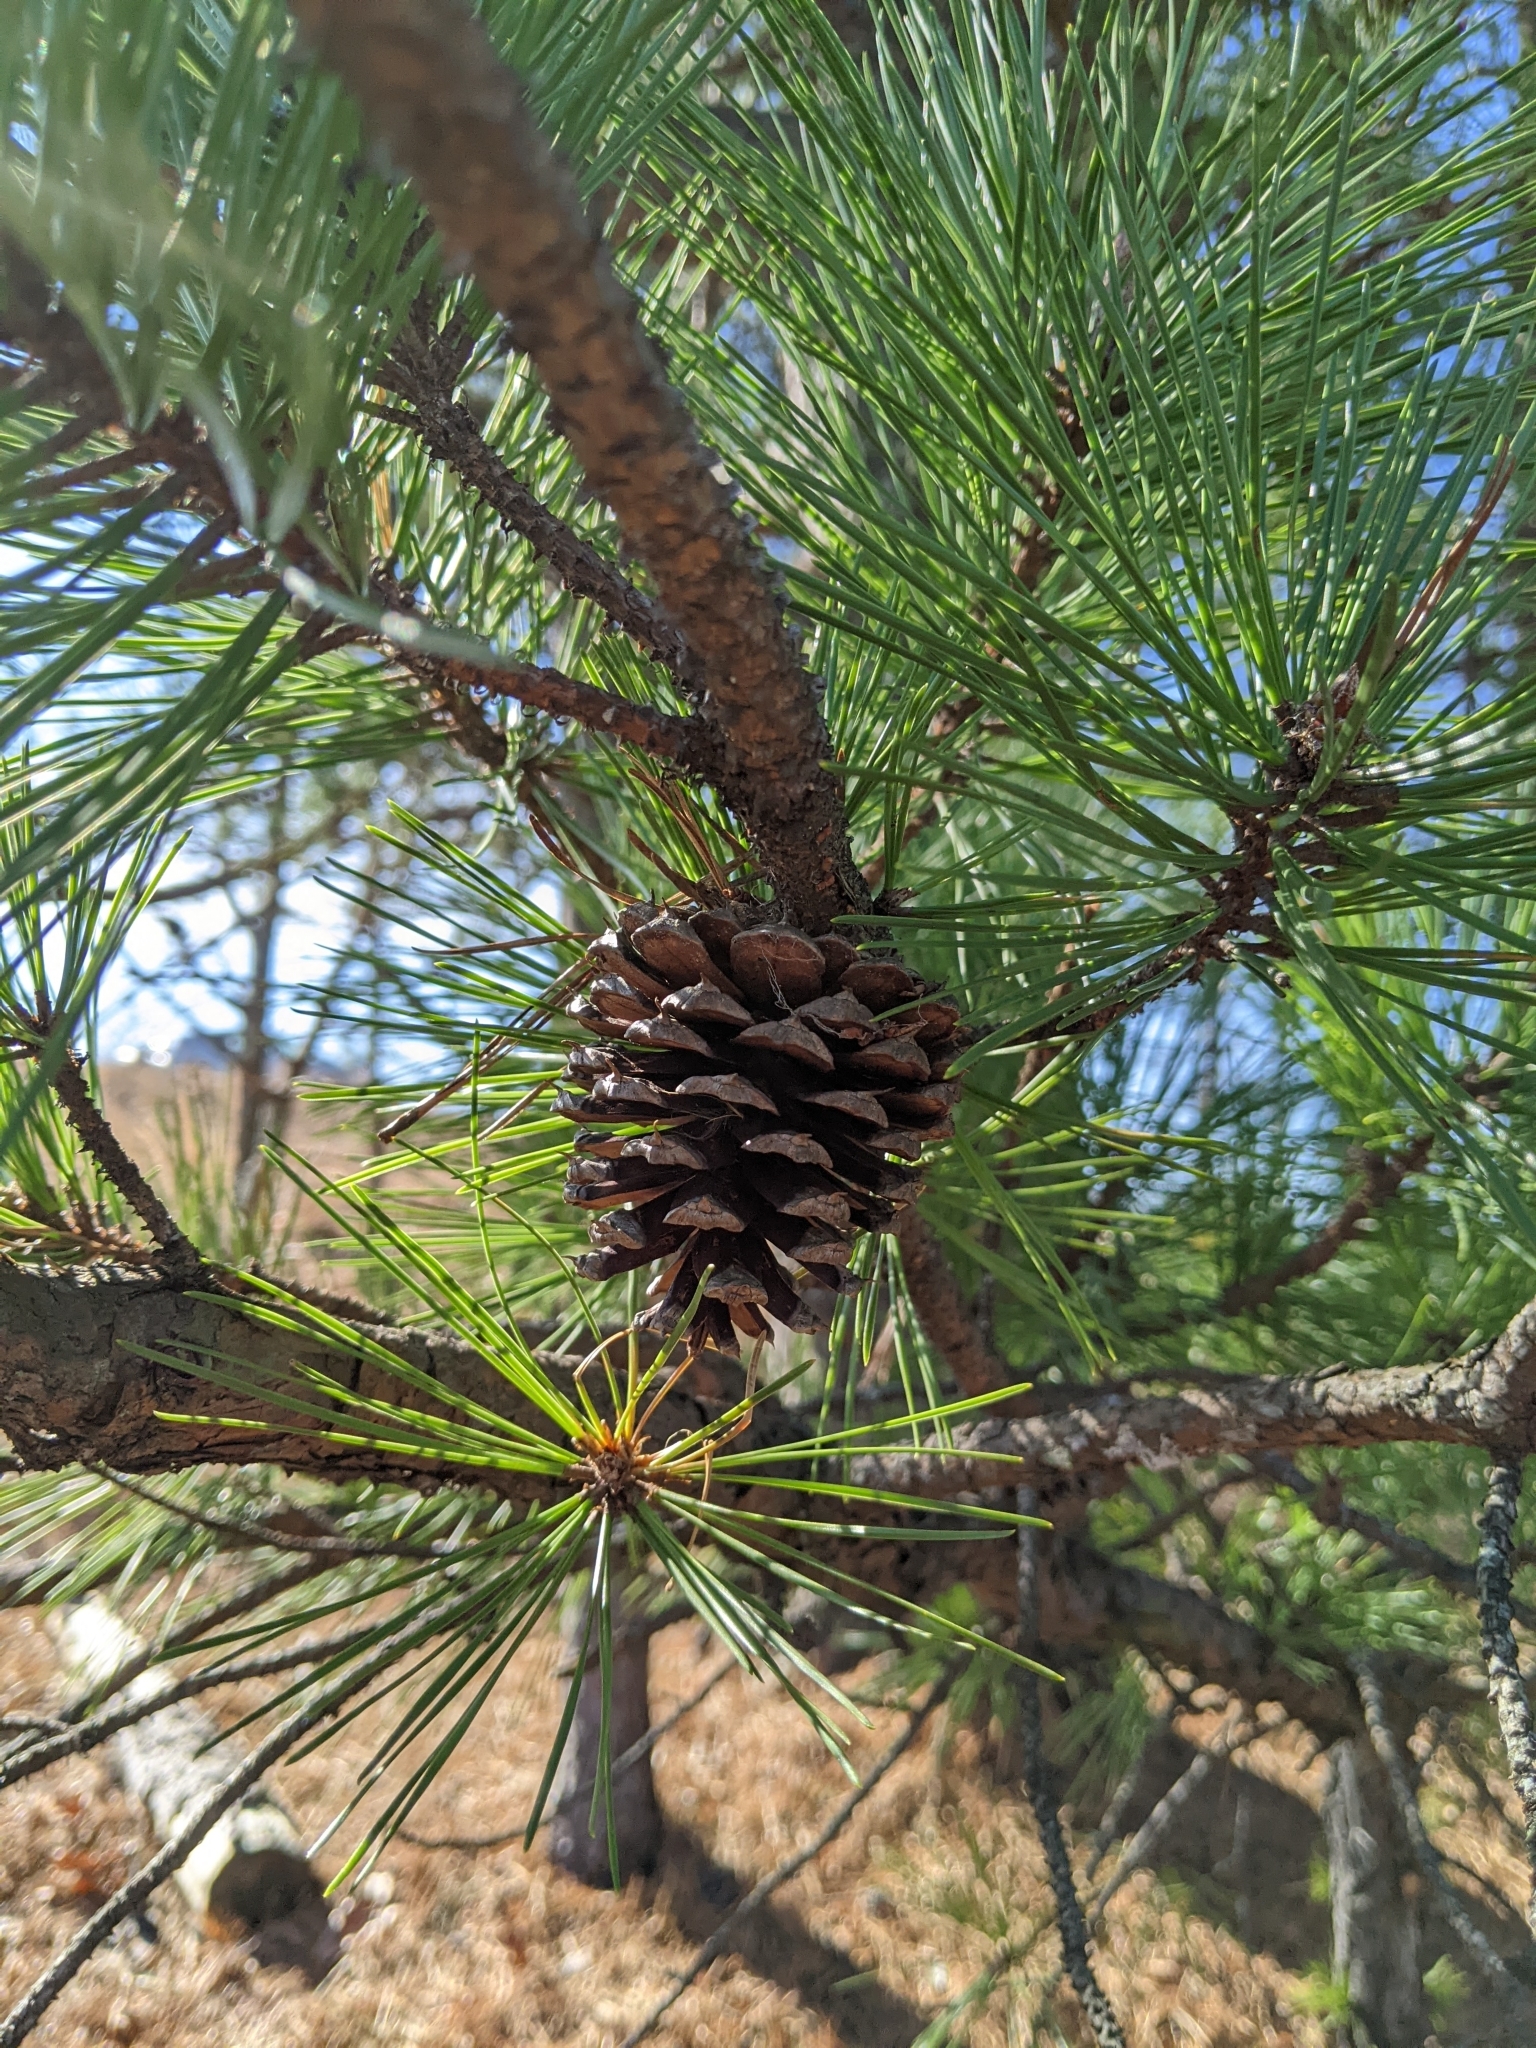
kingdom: Plantae
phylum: Tracheophyta
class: Pinopsida
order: Pinales
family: Pinaceae
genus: Pinus
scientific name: Pinus rigida
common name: Pitch pine
